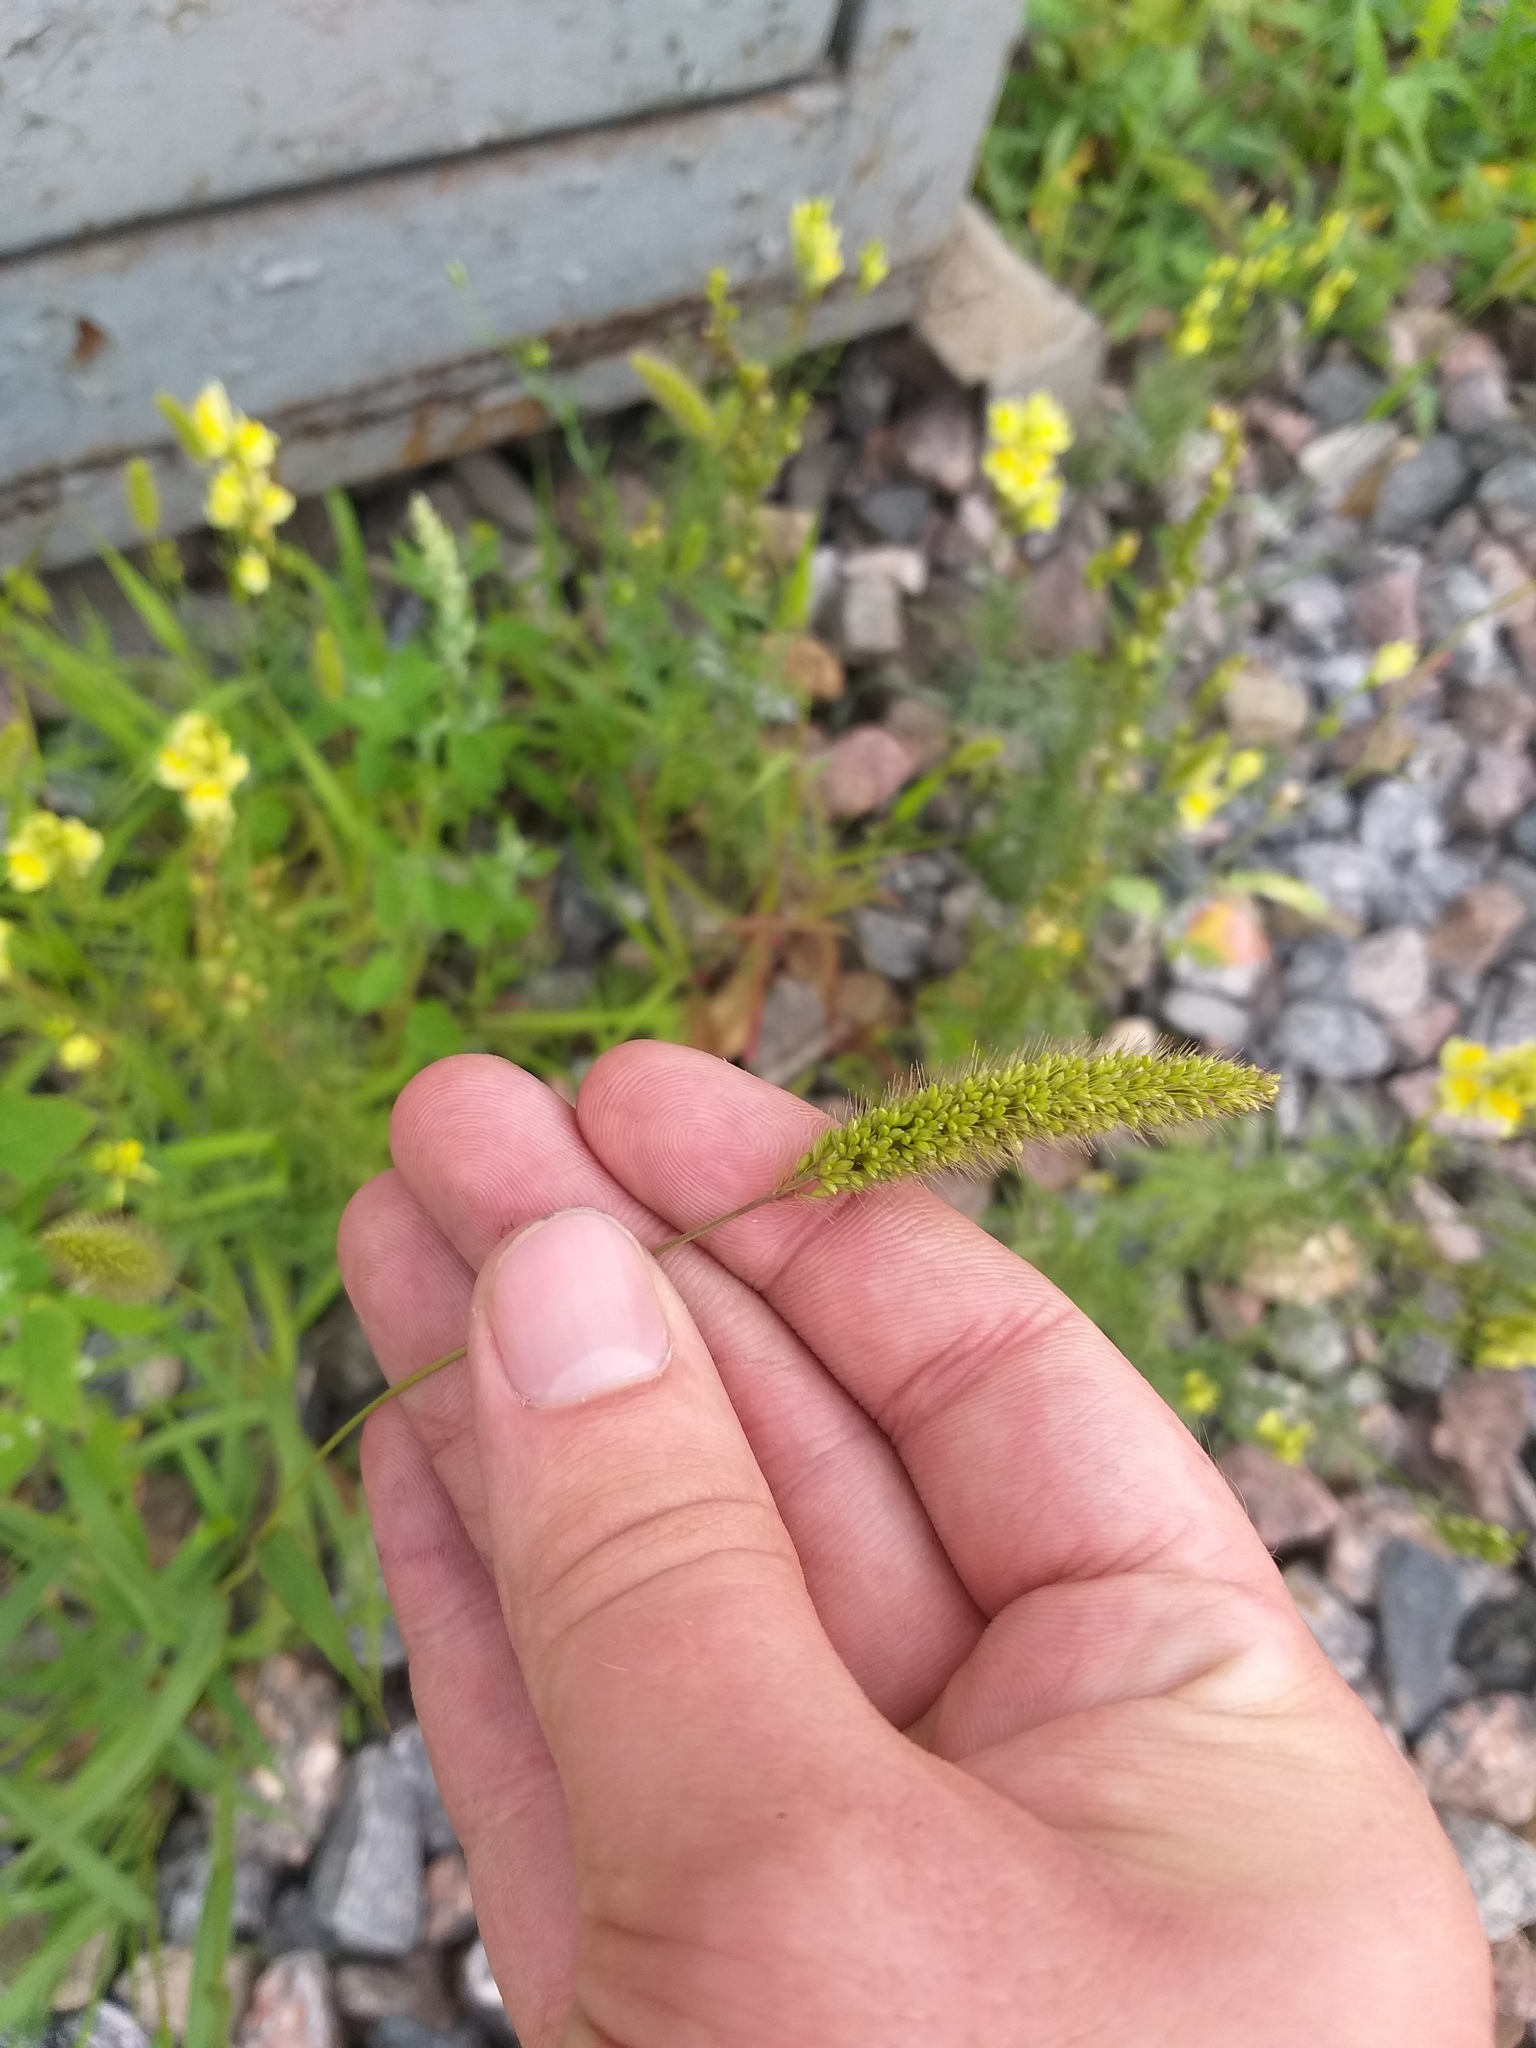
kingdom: Plantae
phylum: Tracheophyta
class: Liliopsida
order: Poales
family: Poaceae
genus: Setaria
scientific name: Setaria viridis
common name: Green bristlegrass
